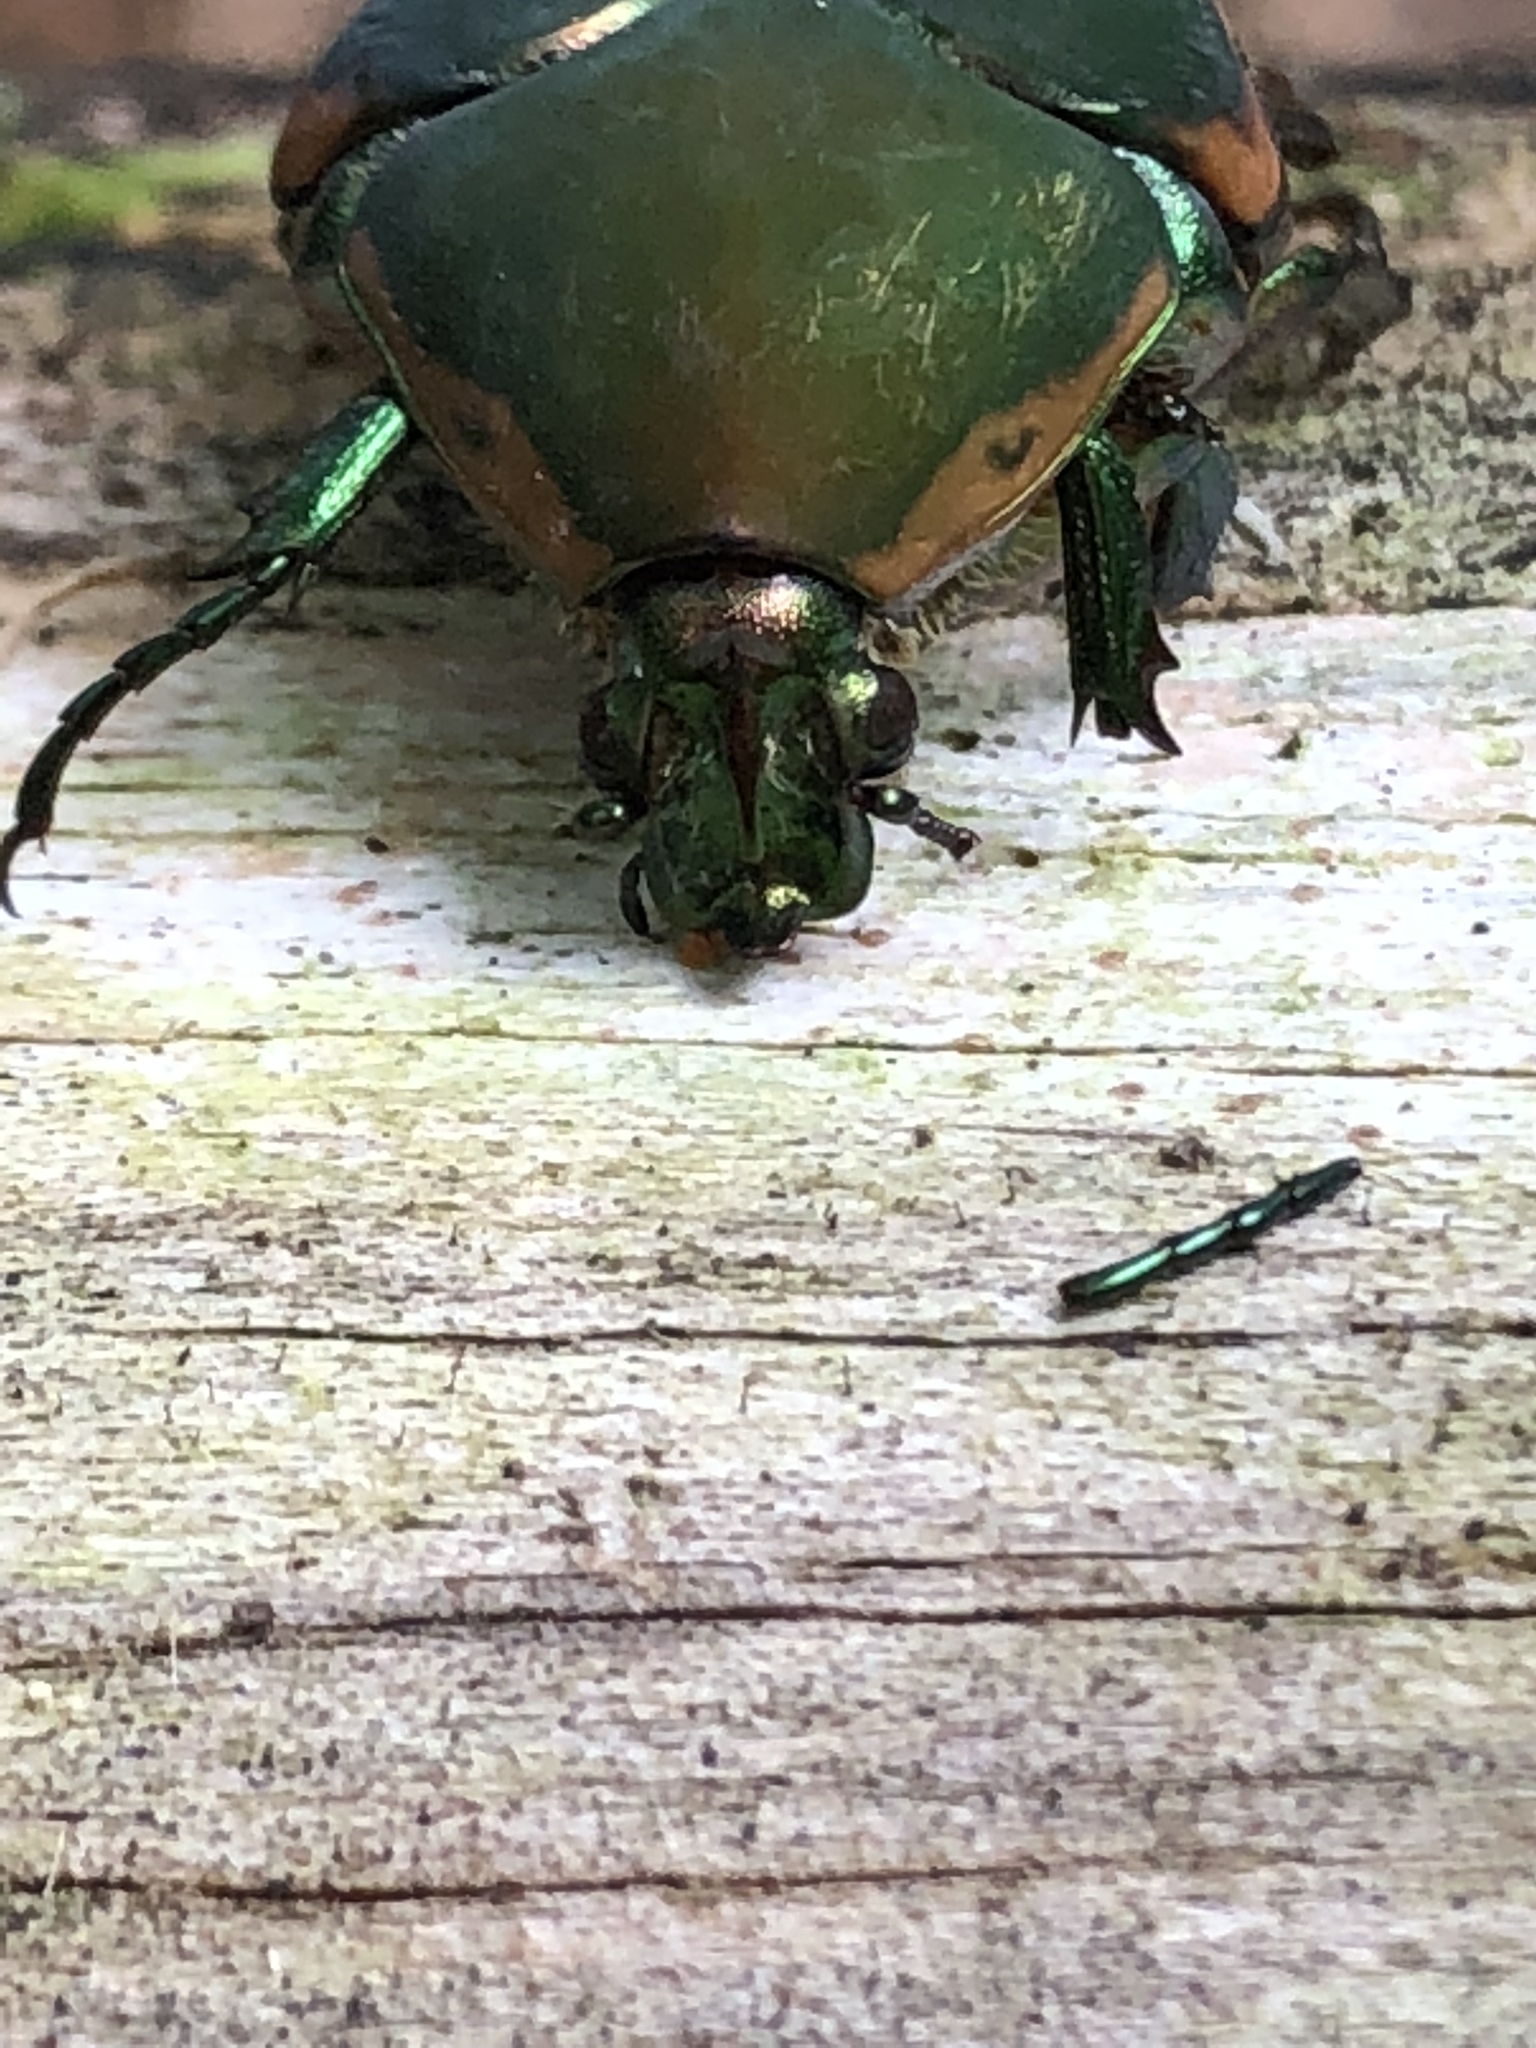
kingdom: Animalia
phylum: Arthropoda
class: Insecta
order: Coleoptera
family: Scarabaeidae
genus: Cotinis
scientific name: Cotinis nitida
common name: Common green june beetle
